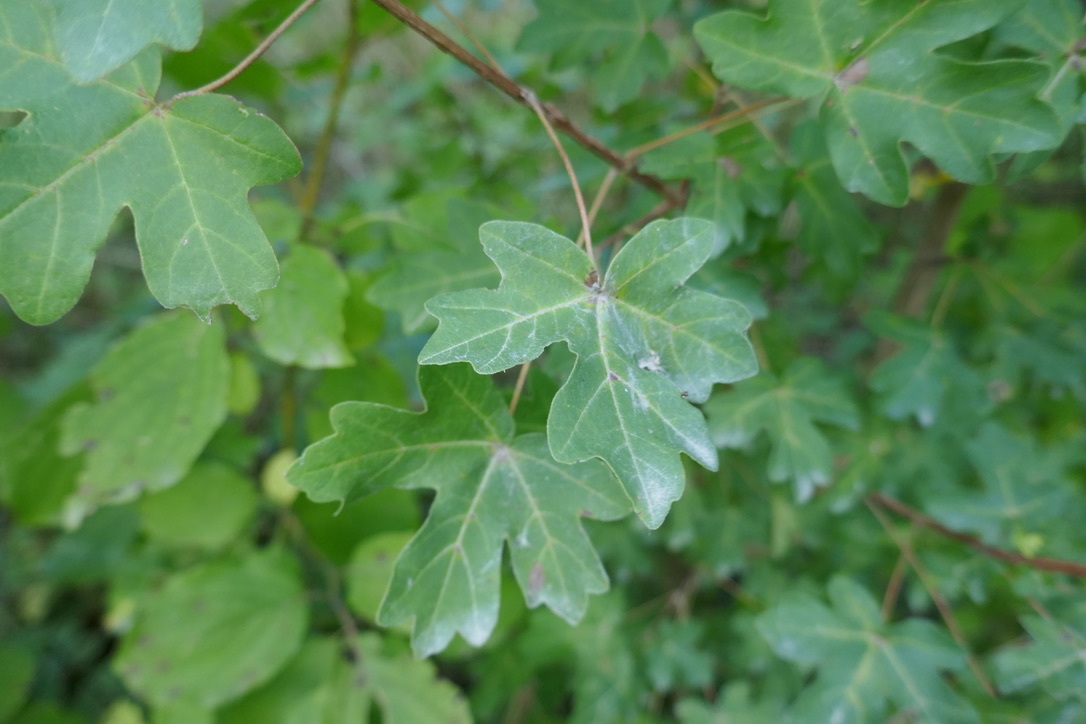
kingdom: Plantae
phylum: Tracheophyta
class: Magnoliopsida
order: Sapindales
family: Sapindaceae
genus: Acer
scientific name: Acer campestre
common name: Field maple
